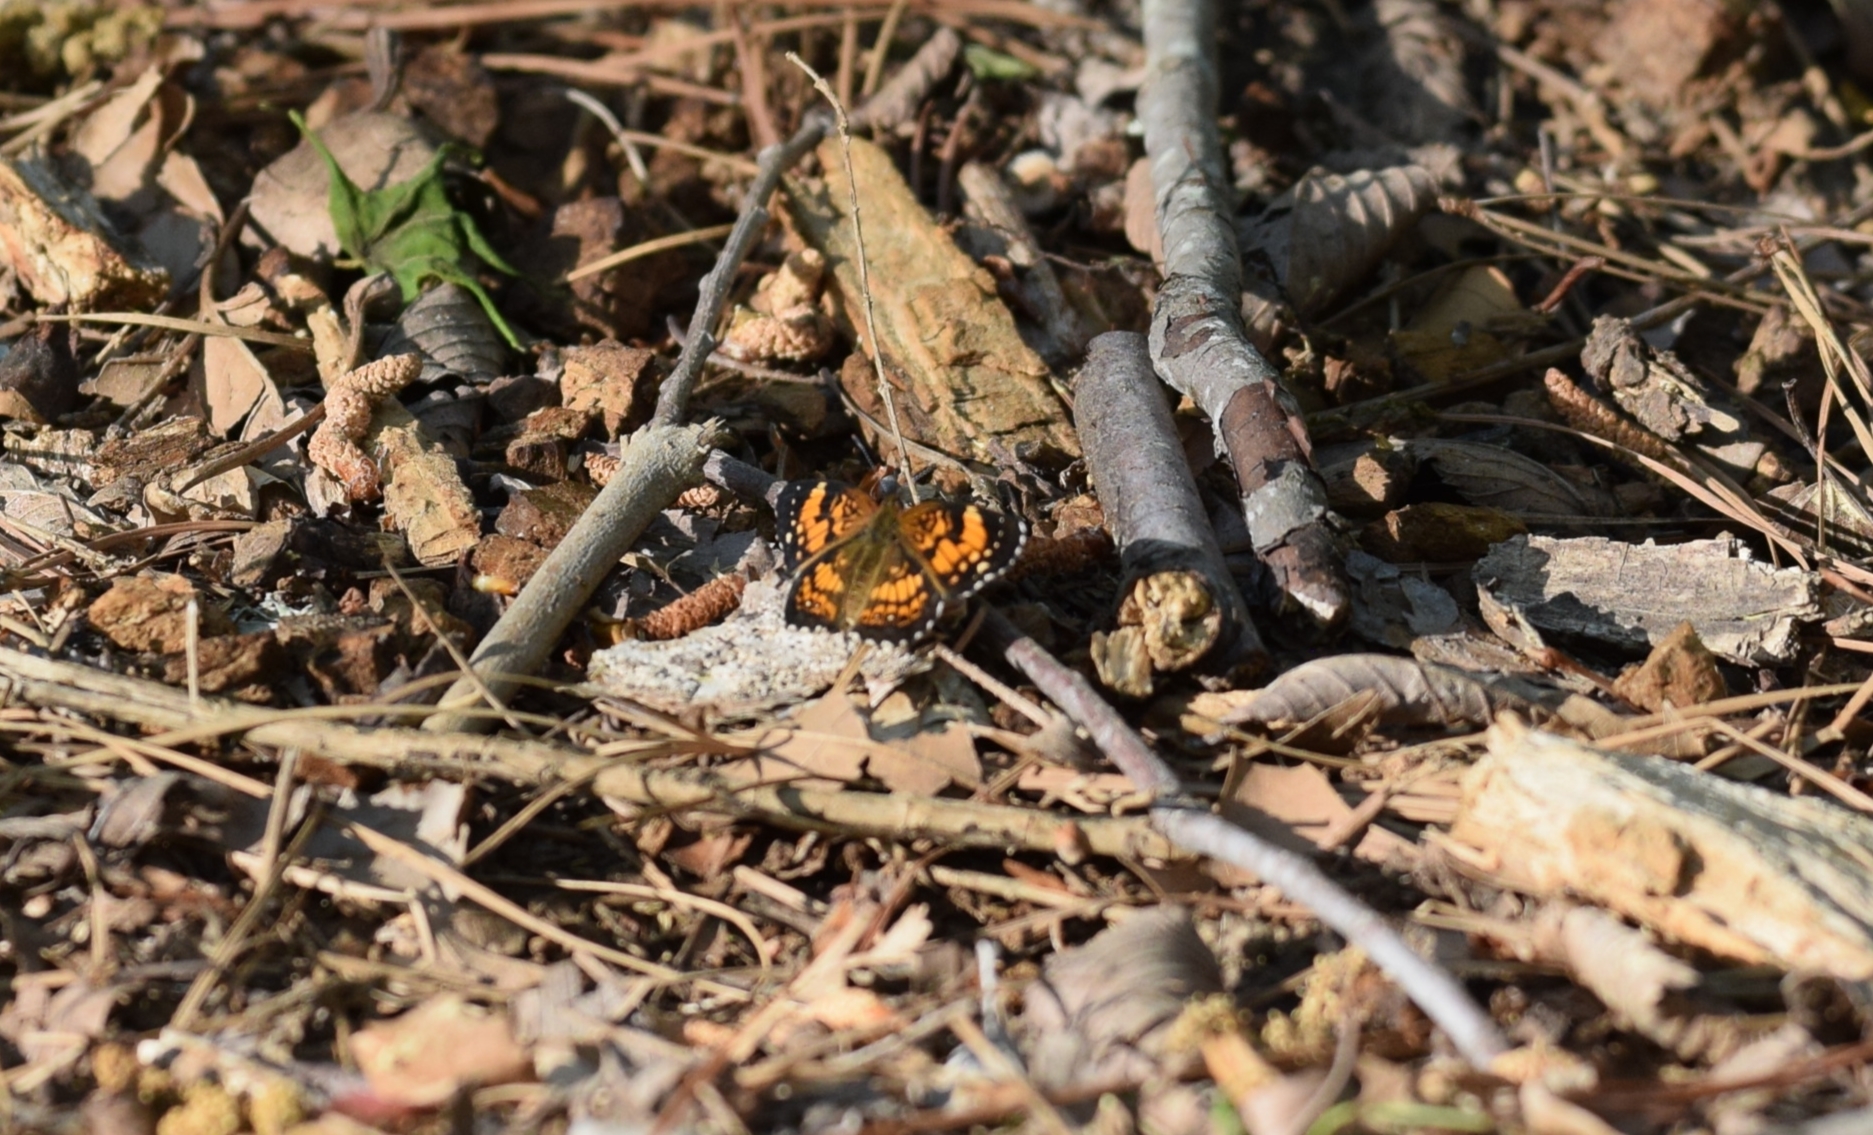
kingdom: Animalia
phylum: Arthropoda
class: Insecta
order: Lepidoptera
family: Nymphalidae
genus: Chlosyne
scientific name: Chlosyne nycteis
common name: Silvery checkerspot
